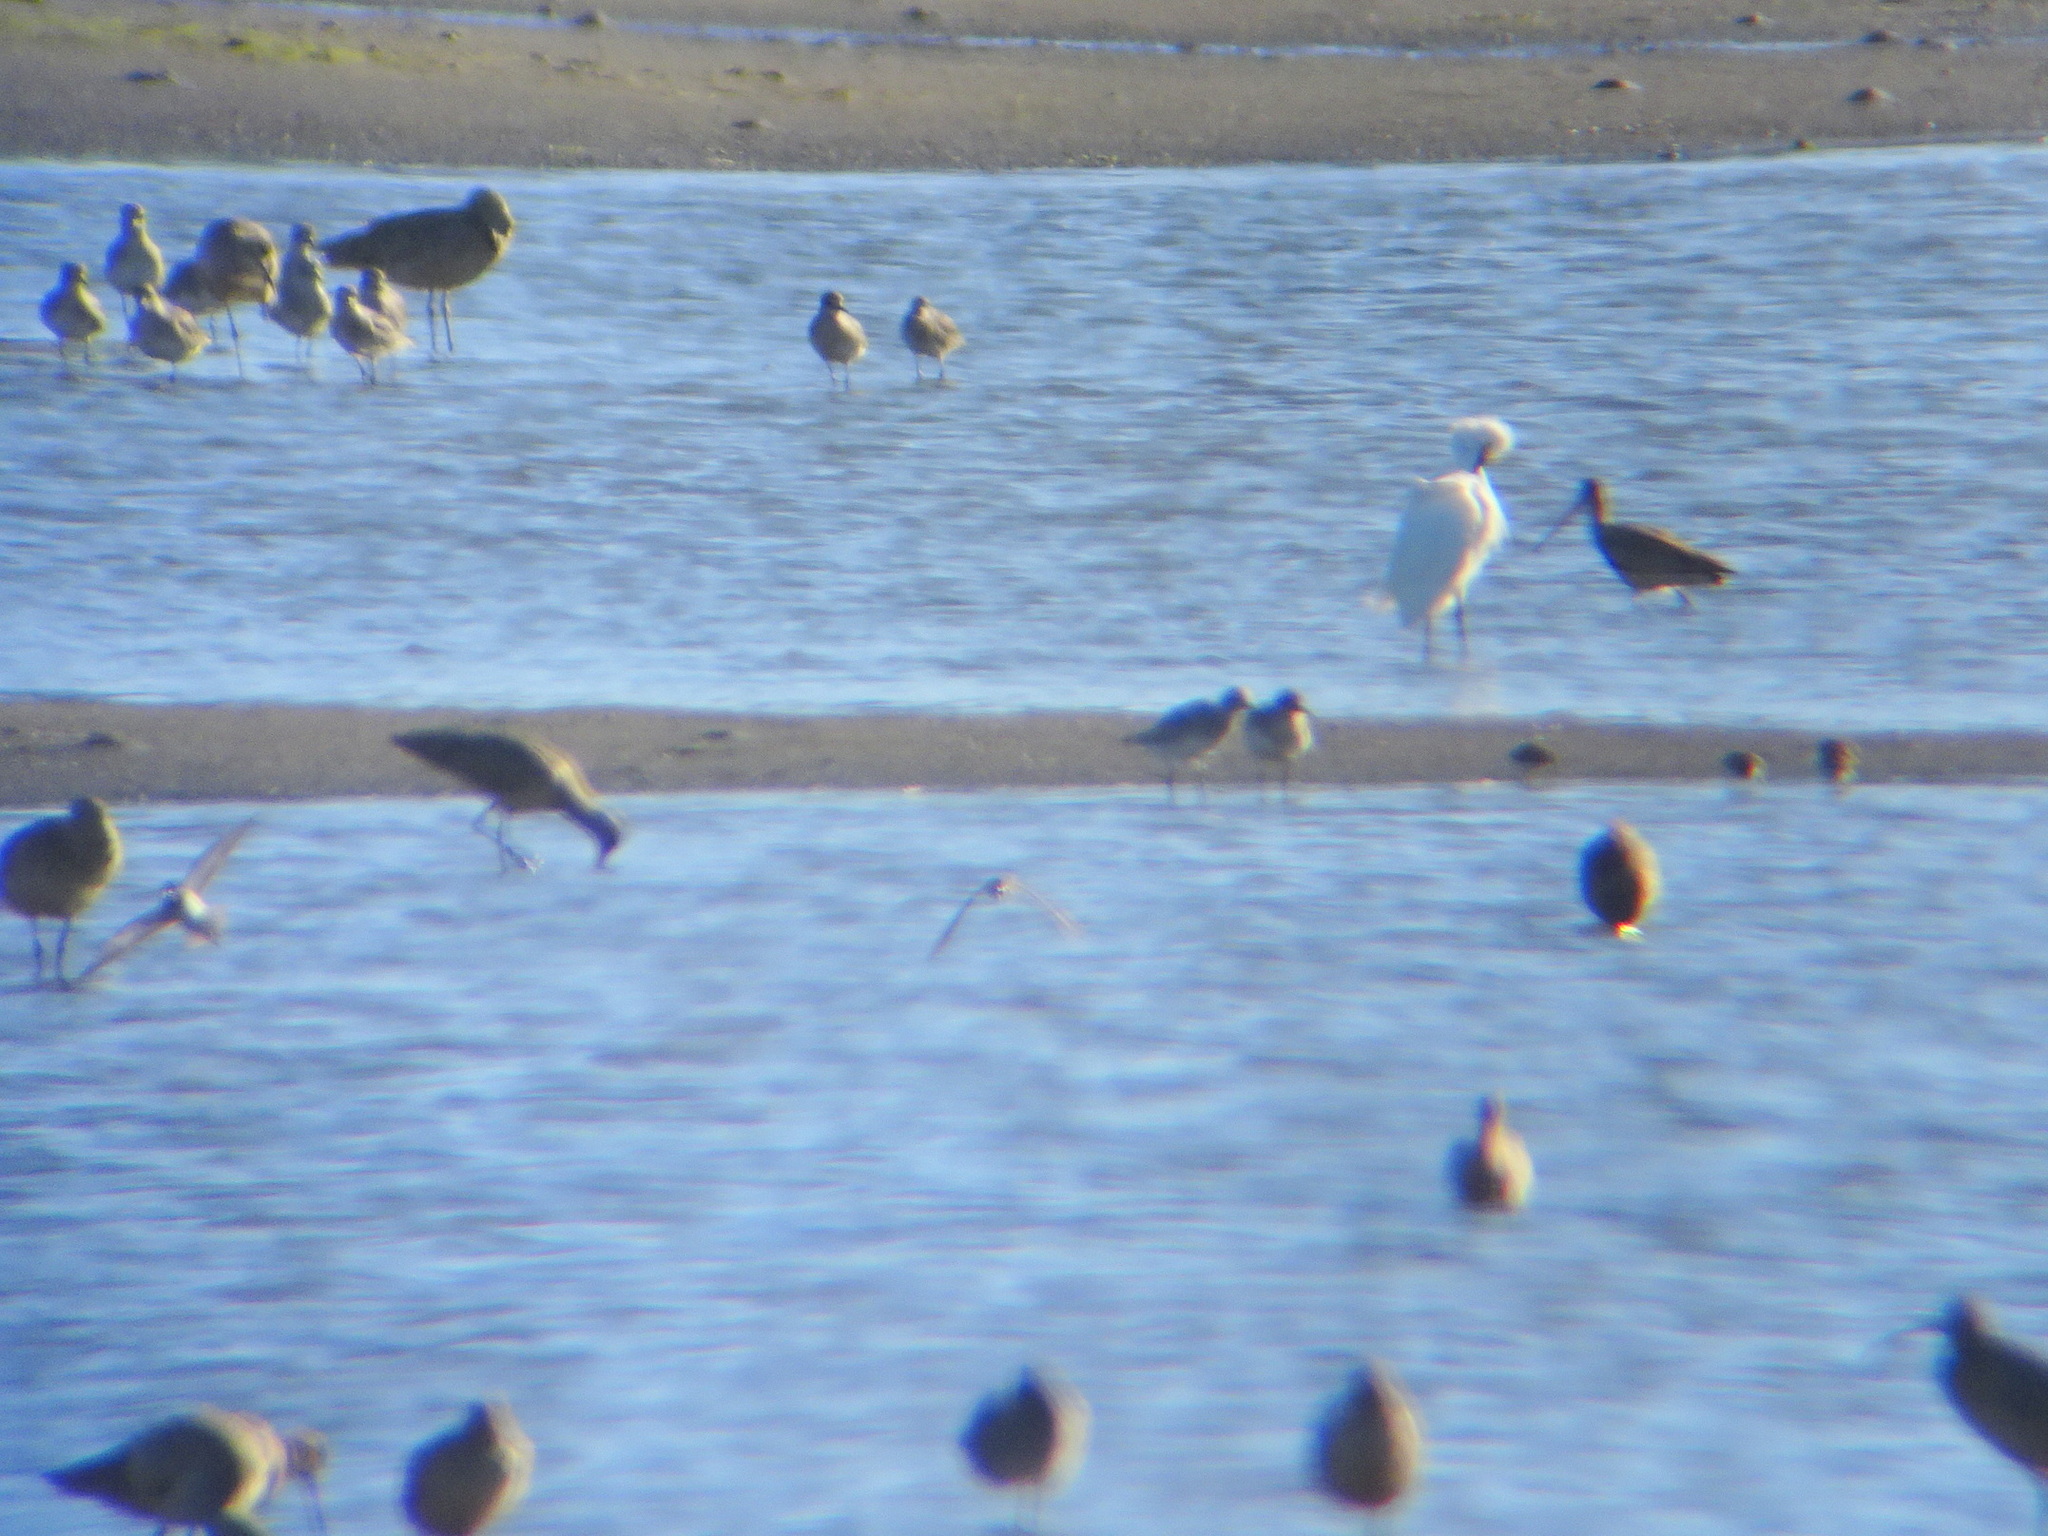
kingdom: Animalia
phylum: Chordata
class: Aves
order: Charadriiformes
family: Charadriidae
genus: Pluvialis
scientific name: Pluvialis squatarola
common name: Grey plover
